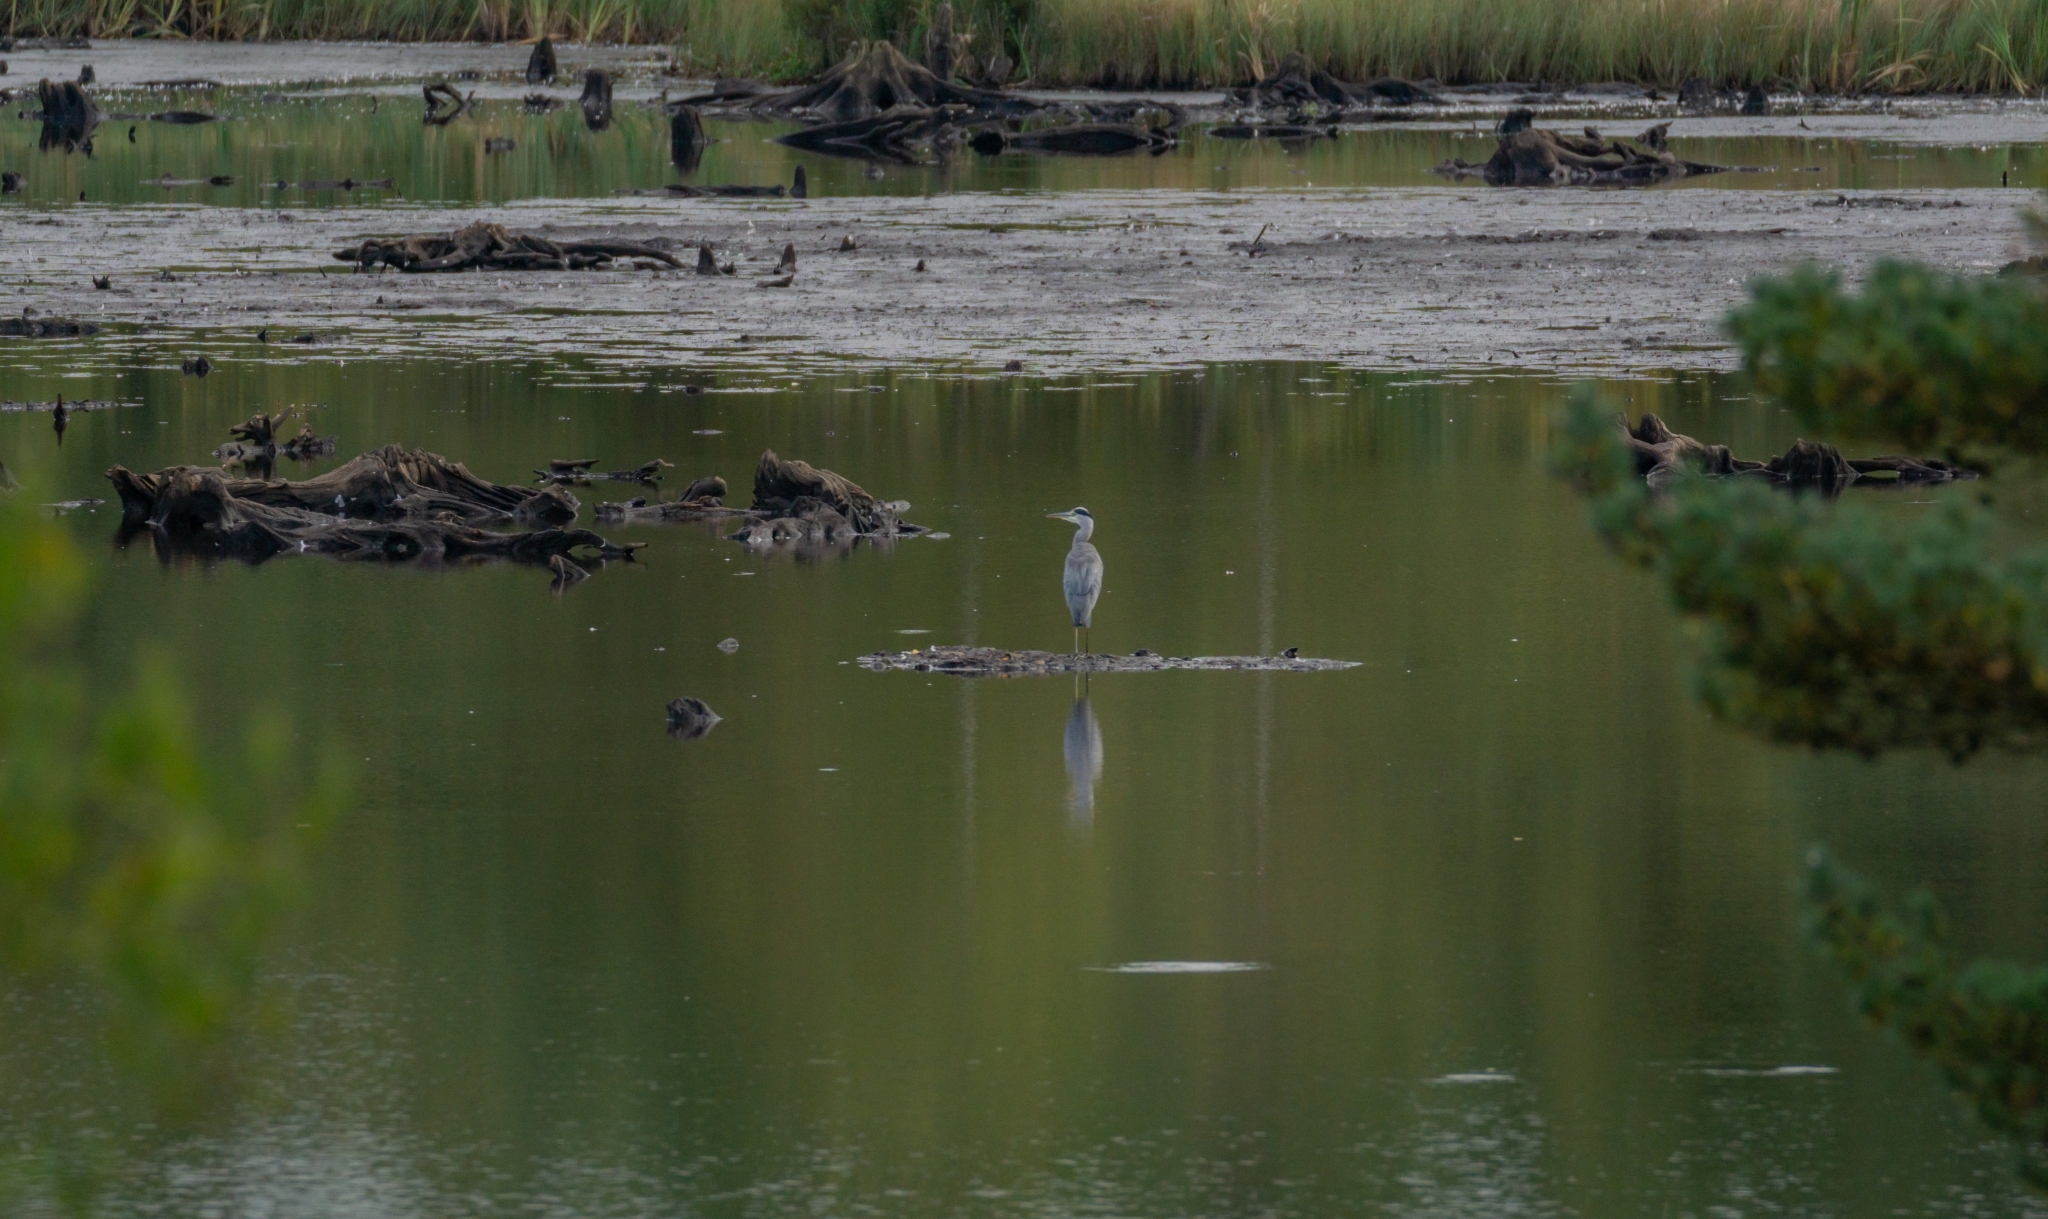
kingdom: Animalia
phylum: Chordata
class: Aves
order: Pelecaniformes
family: Ardeidae
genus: Ardea
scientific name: Ardea cinerea
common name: Grey heron
